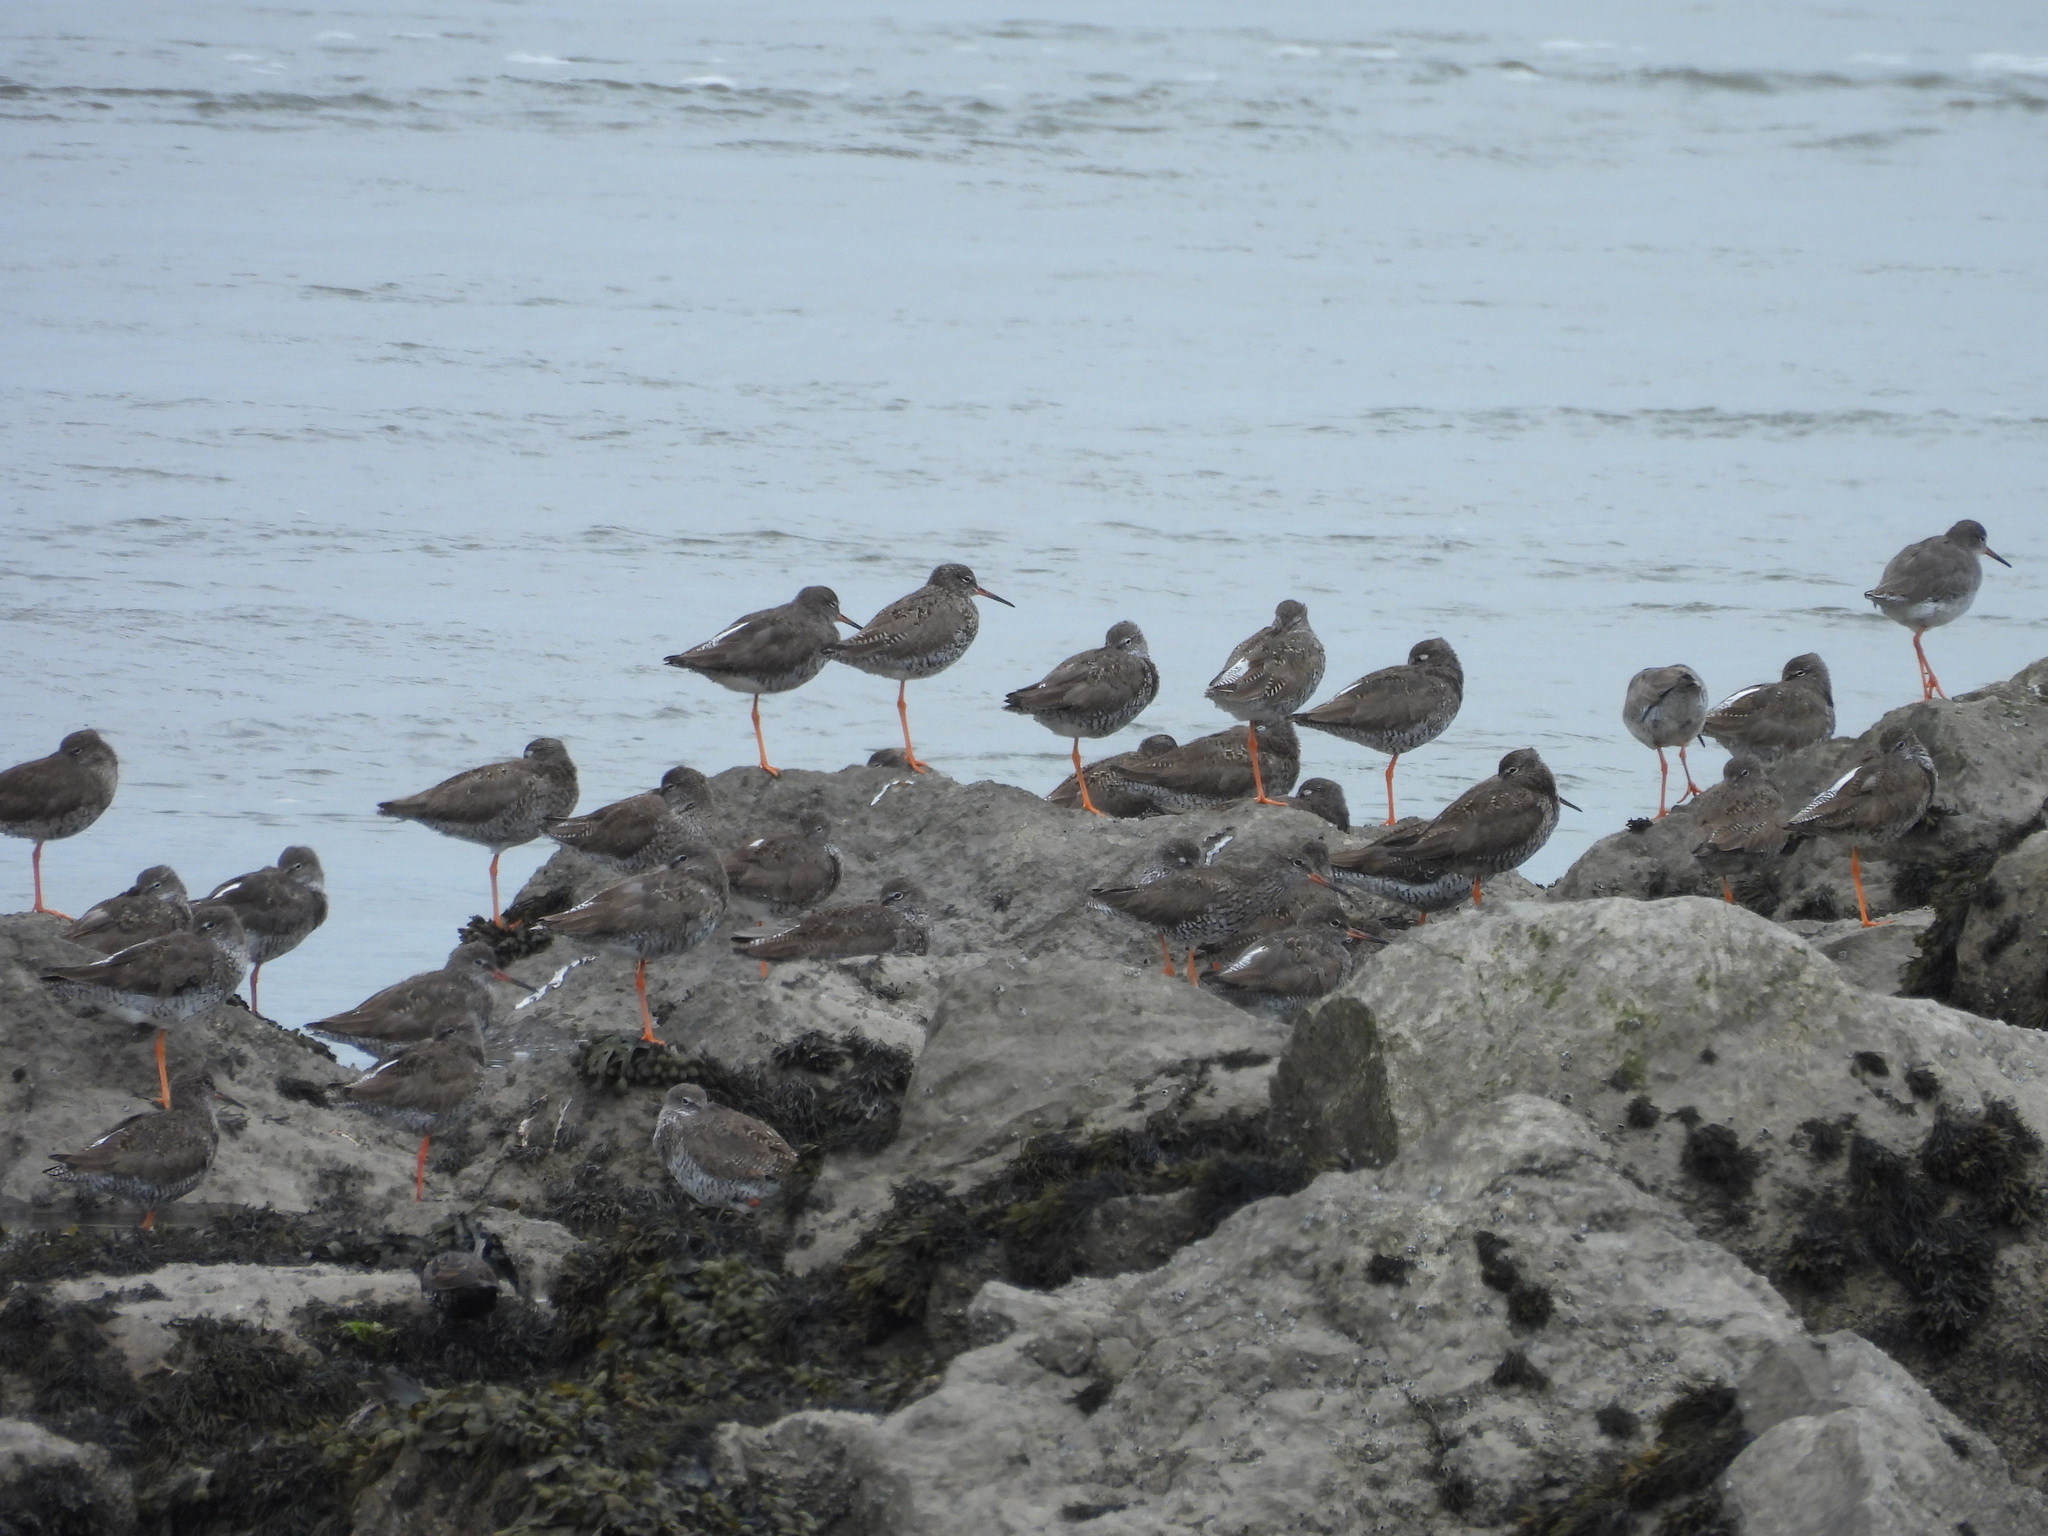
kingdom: Animalia
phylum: Chordata
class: Aves
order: Charadriiformes
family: Scolopacidae
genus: Tringa
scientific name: Tringa totanus
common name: Common redshank
